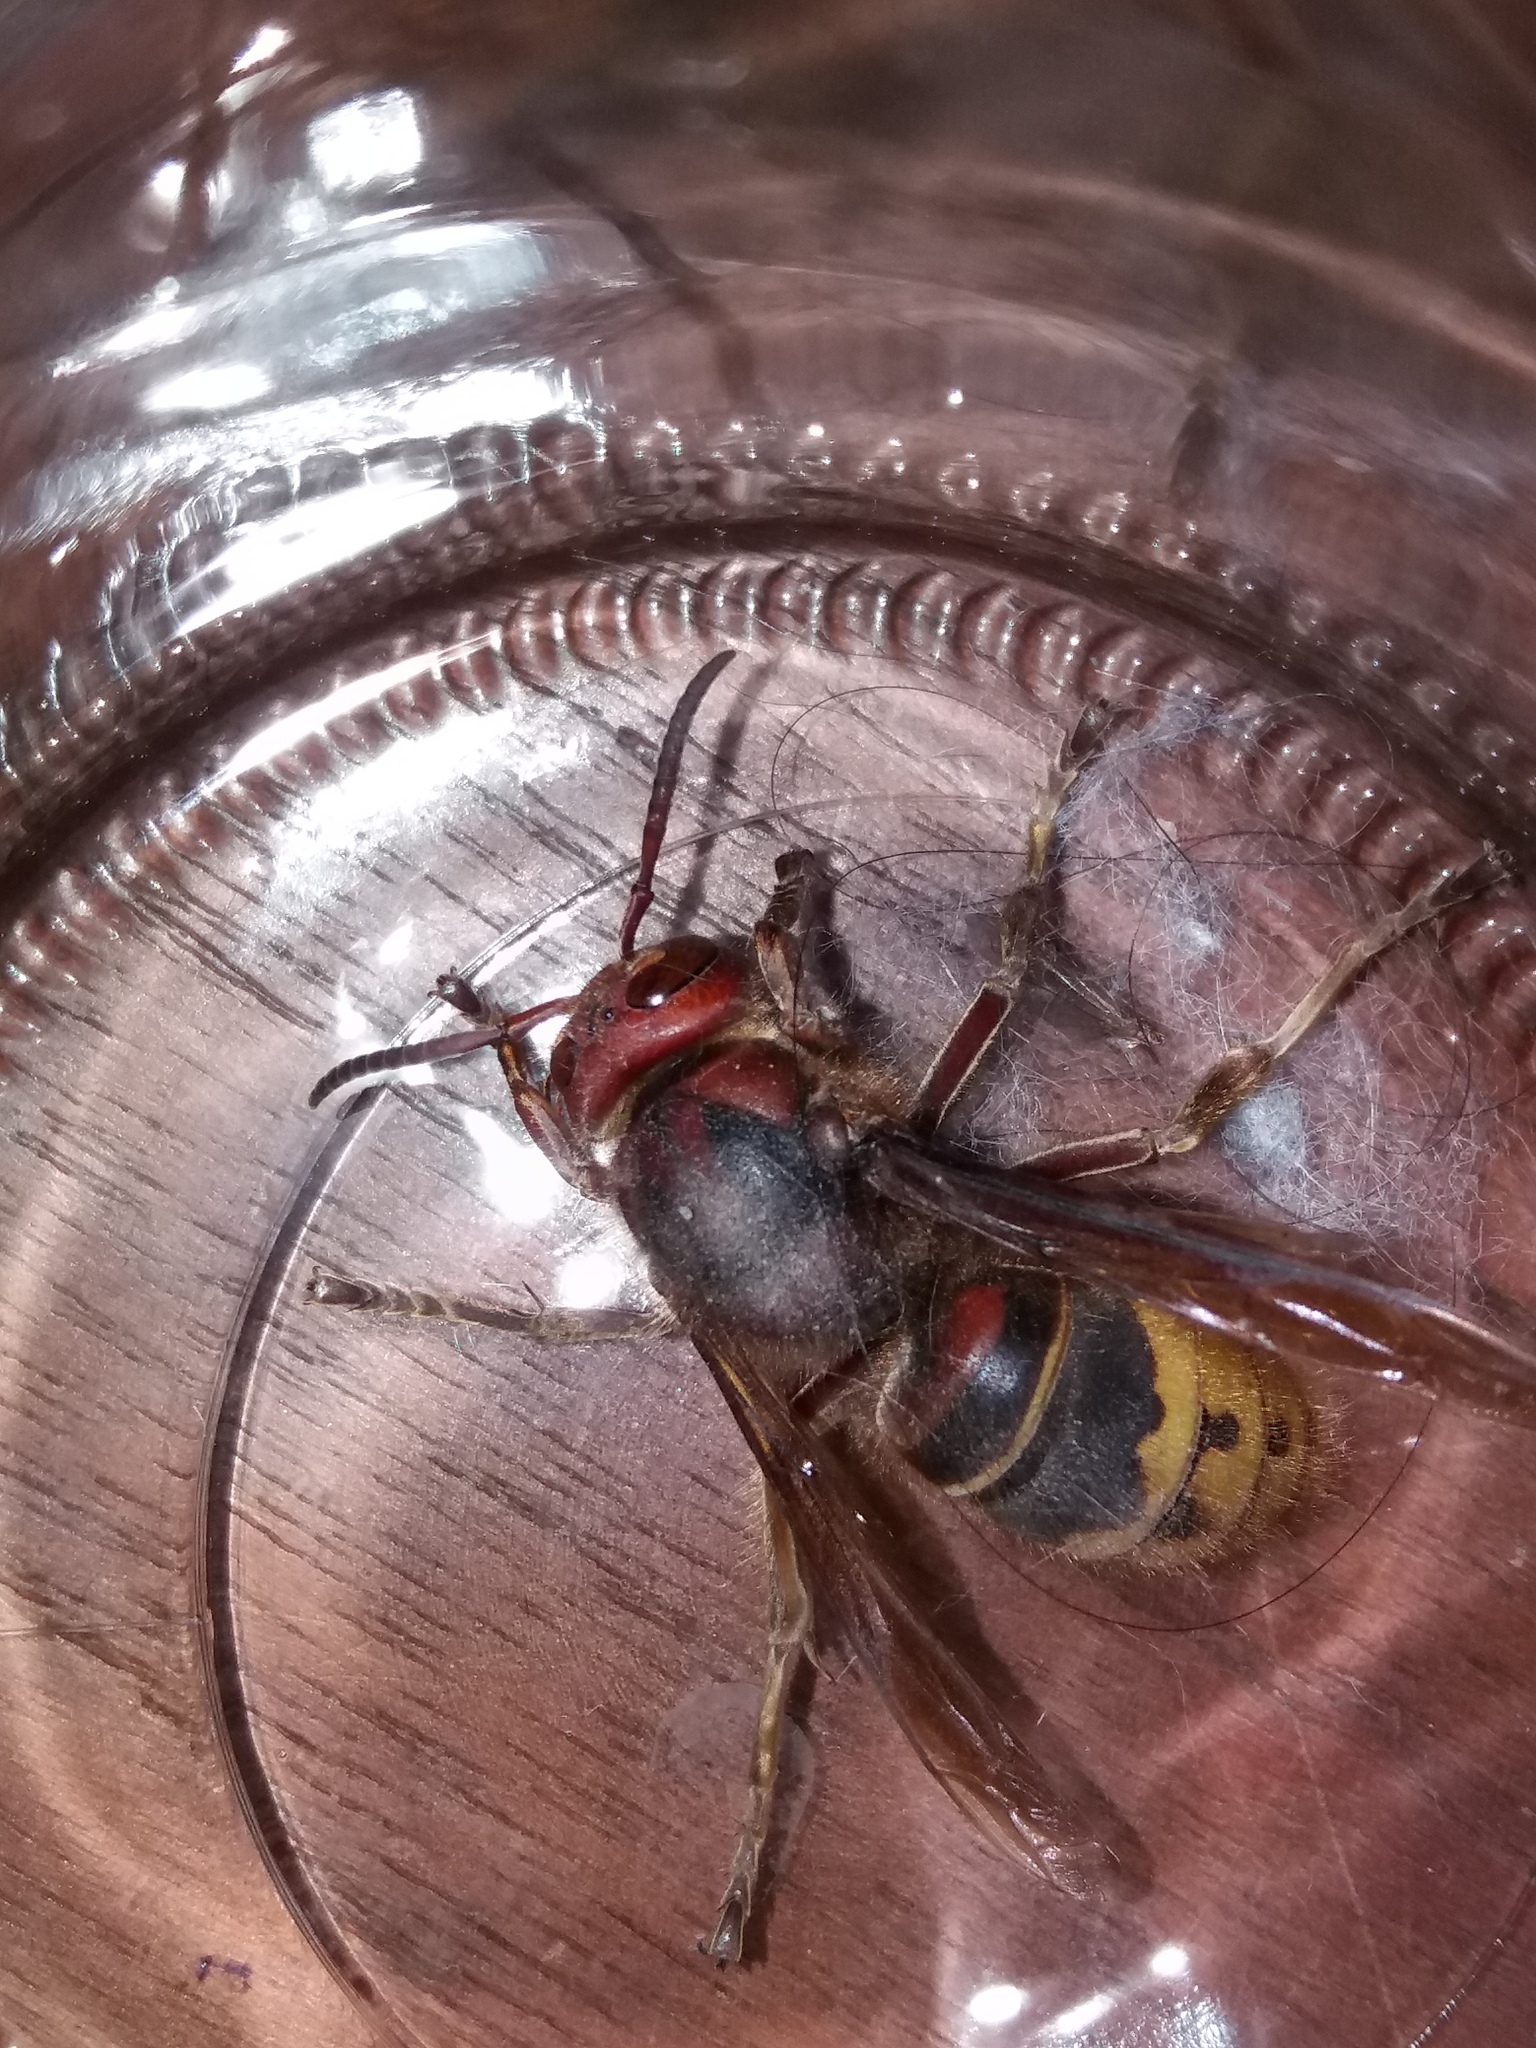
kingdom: Animalia
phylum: Arthropoda
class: Insecta
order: Hymenoptera
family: Vespidae
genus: Vespa
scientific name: Vespa crabro
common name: Hornet
